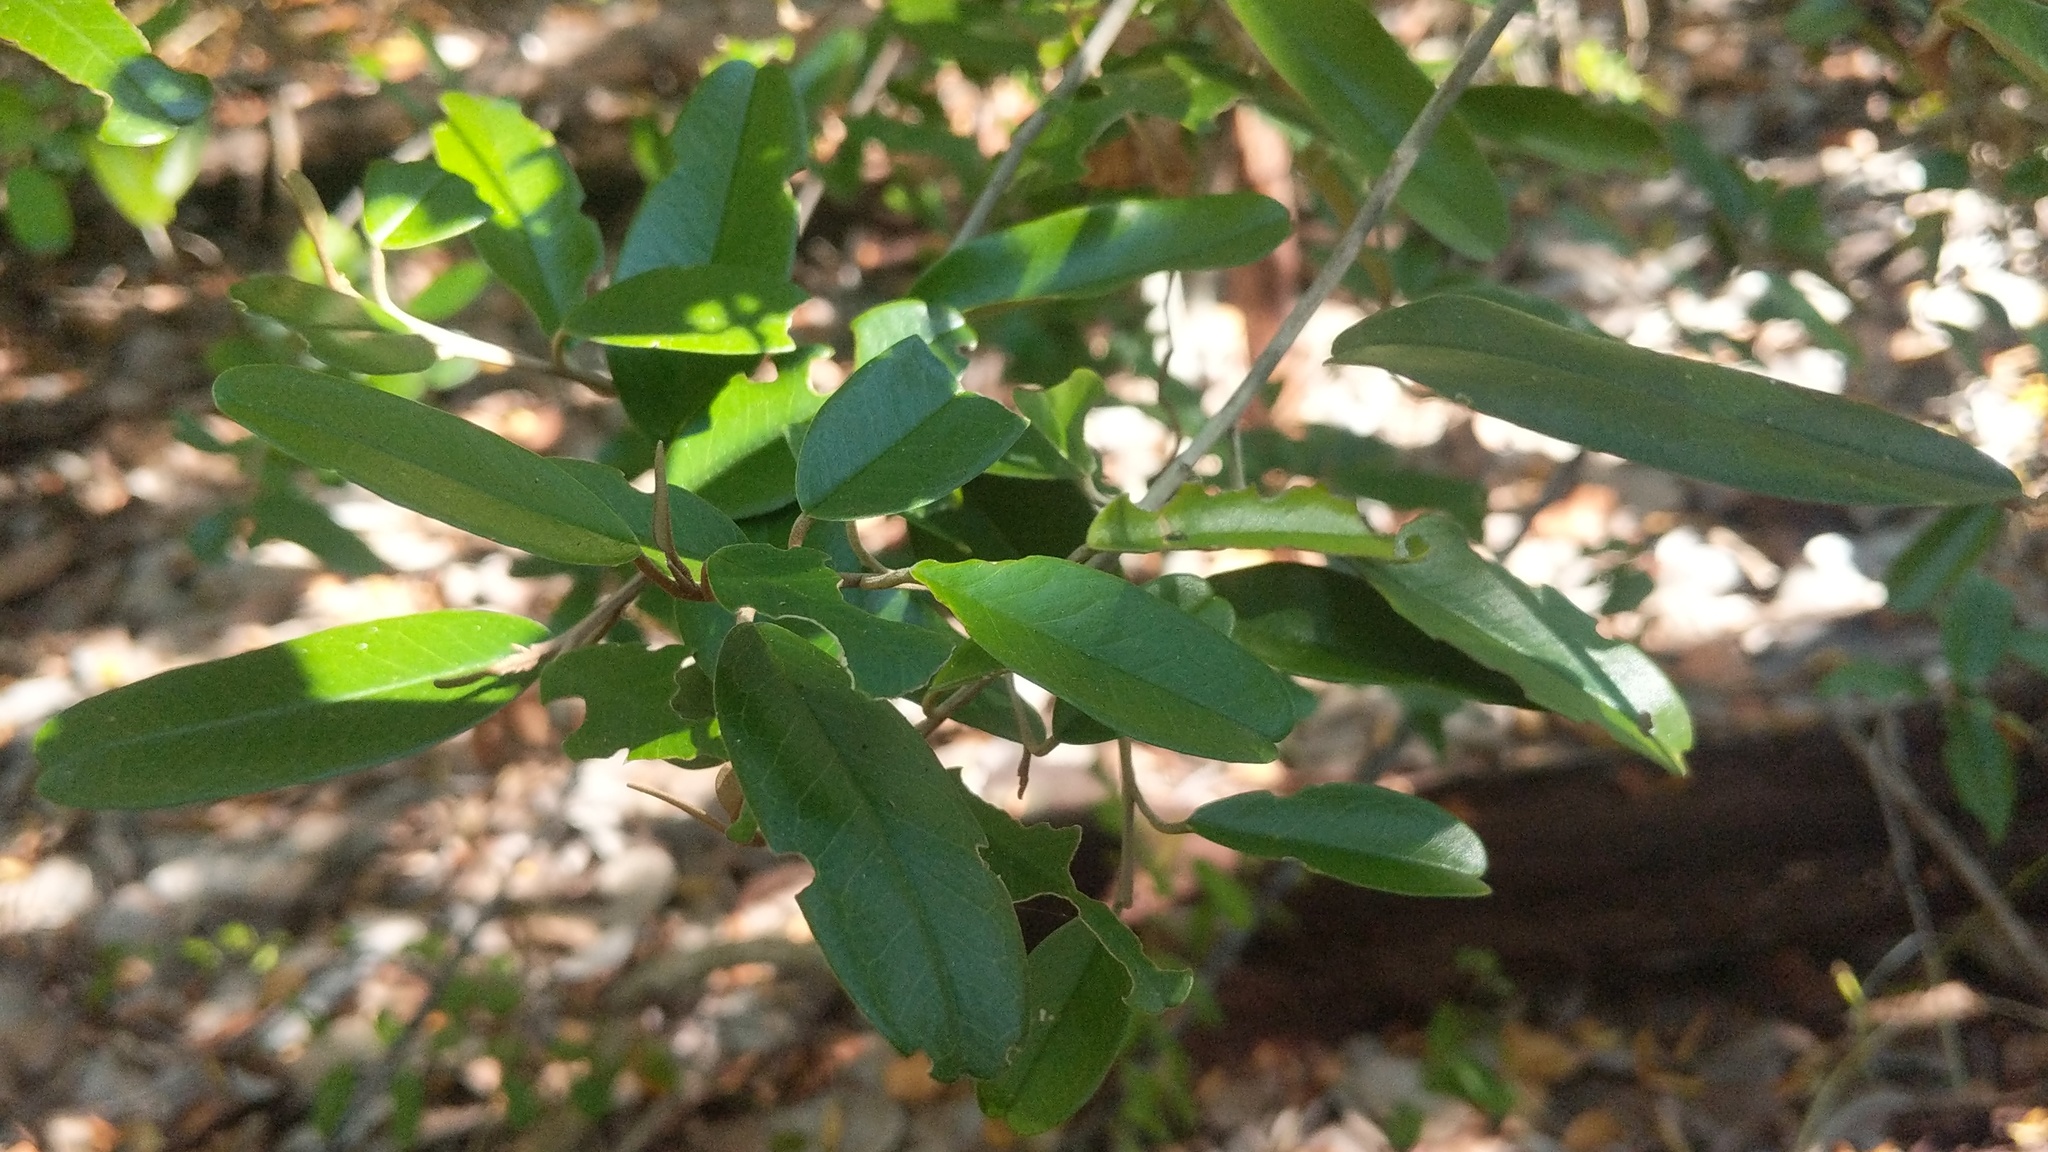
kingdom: Plantae
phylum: Tracheophyta
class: Magnoliopsida
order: Brassicales
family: Capparaceae
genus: Quadrella
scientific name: Quadrella cynophallophora
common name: Black willow
